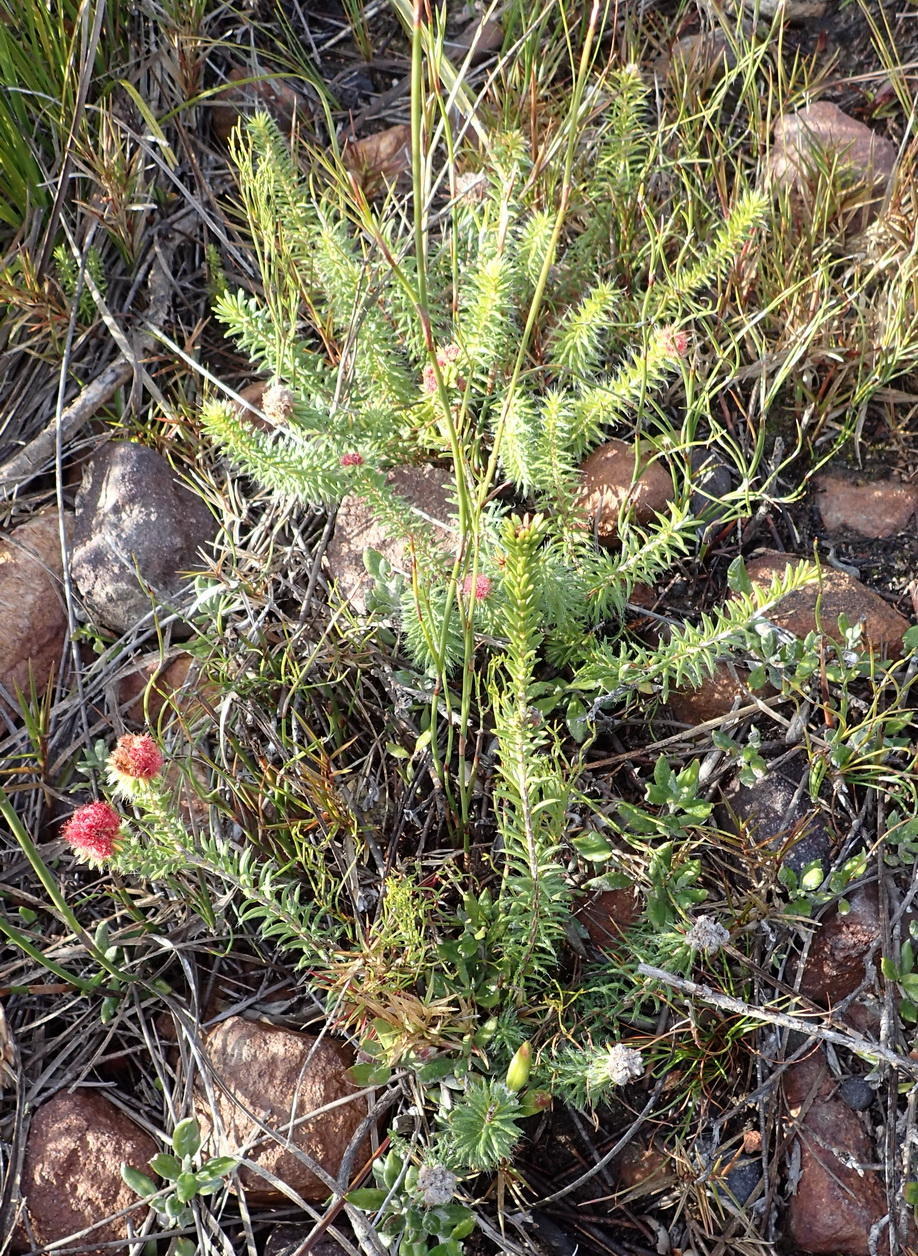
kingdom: Plantae
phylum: Tracheophyta
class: Magnoliopsida
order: Ericales
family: Ericaceae
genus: Erica
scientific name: Erica cerinthoides
